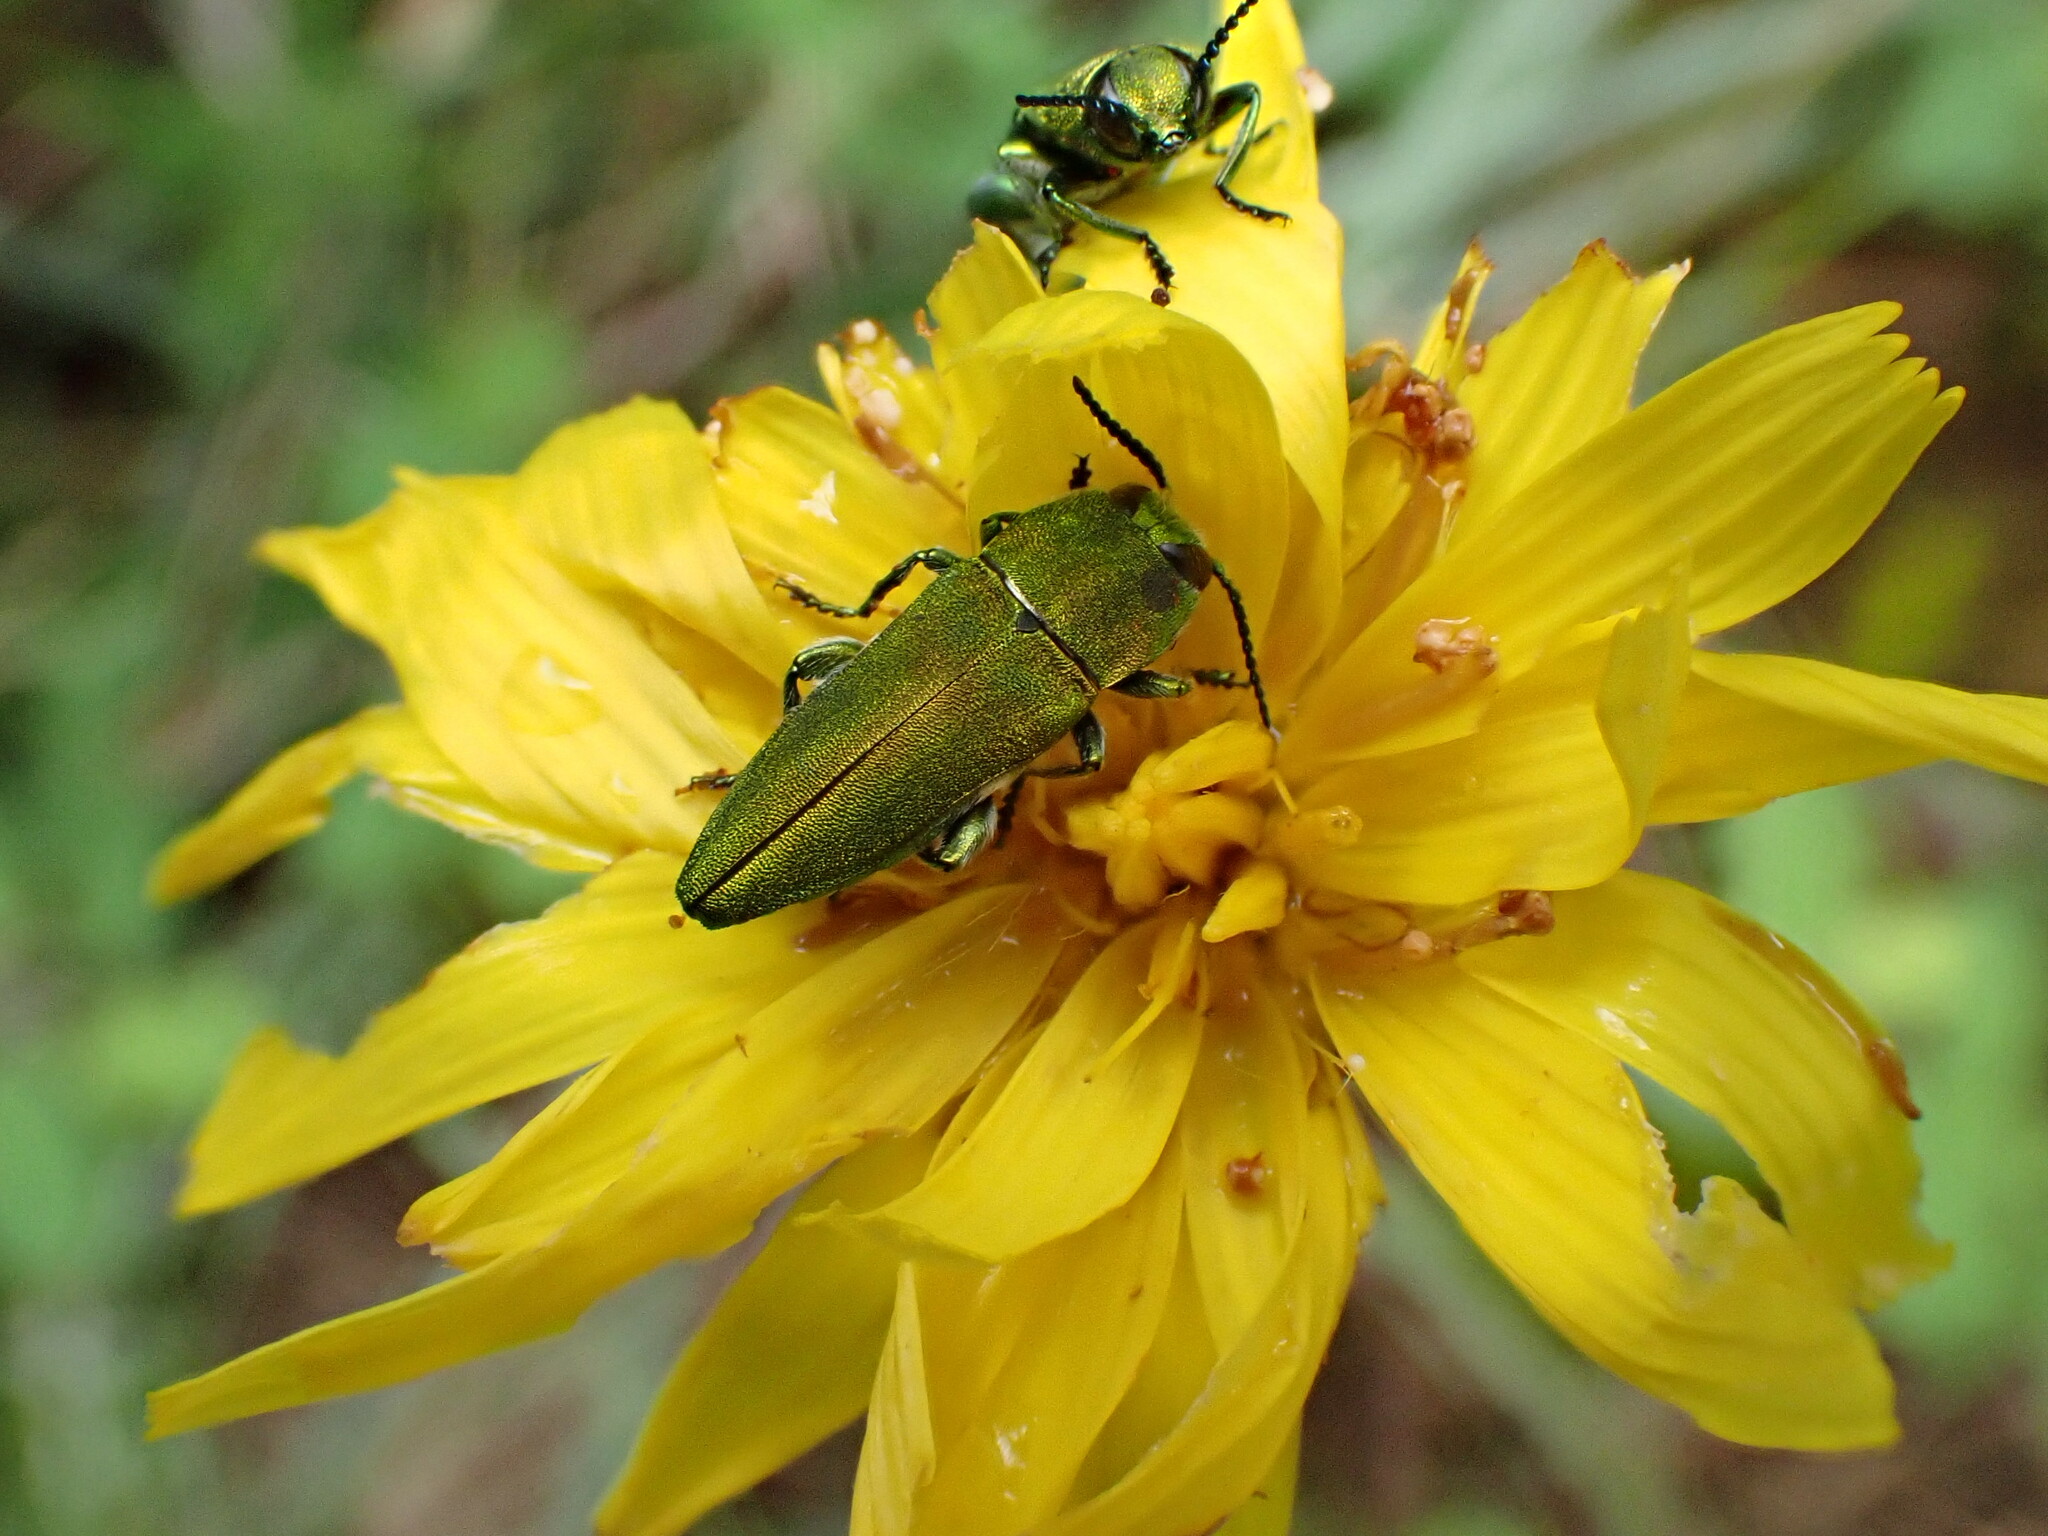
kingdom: Animalia
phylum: Arthropoda
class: Insecta
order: Coleoptera
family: Buprestidae
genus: Anthaxia
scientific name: Anthaxia hungarica
